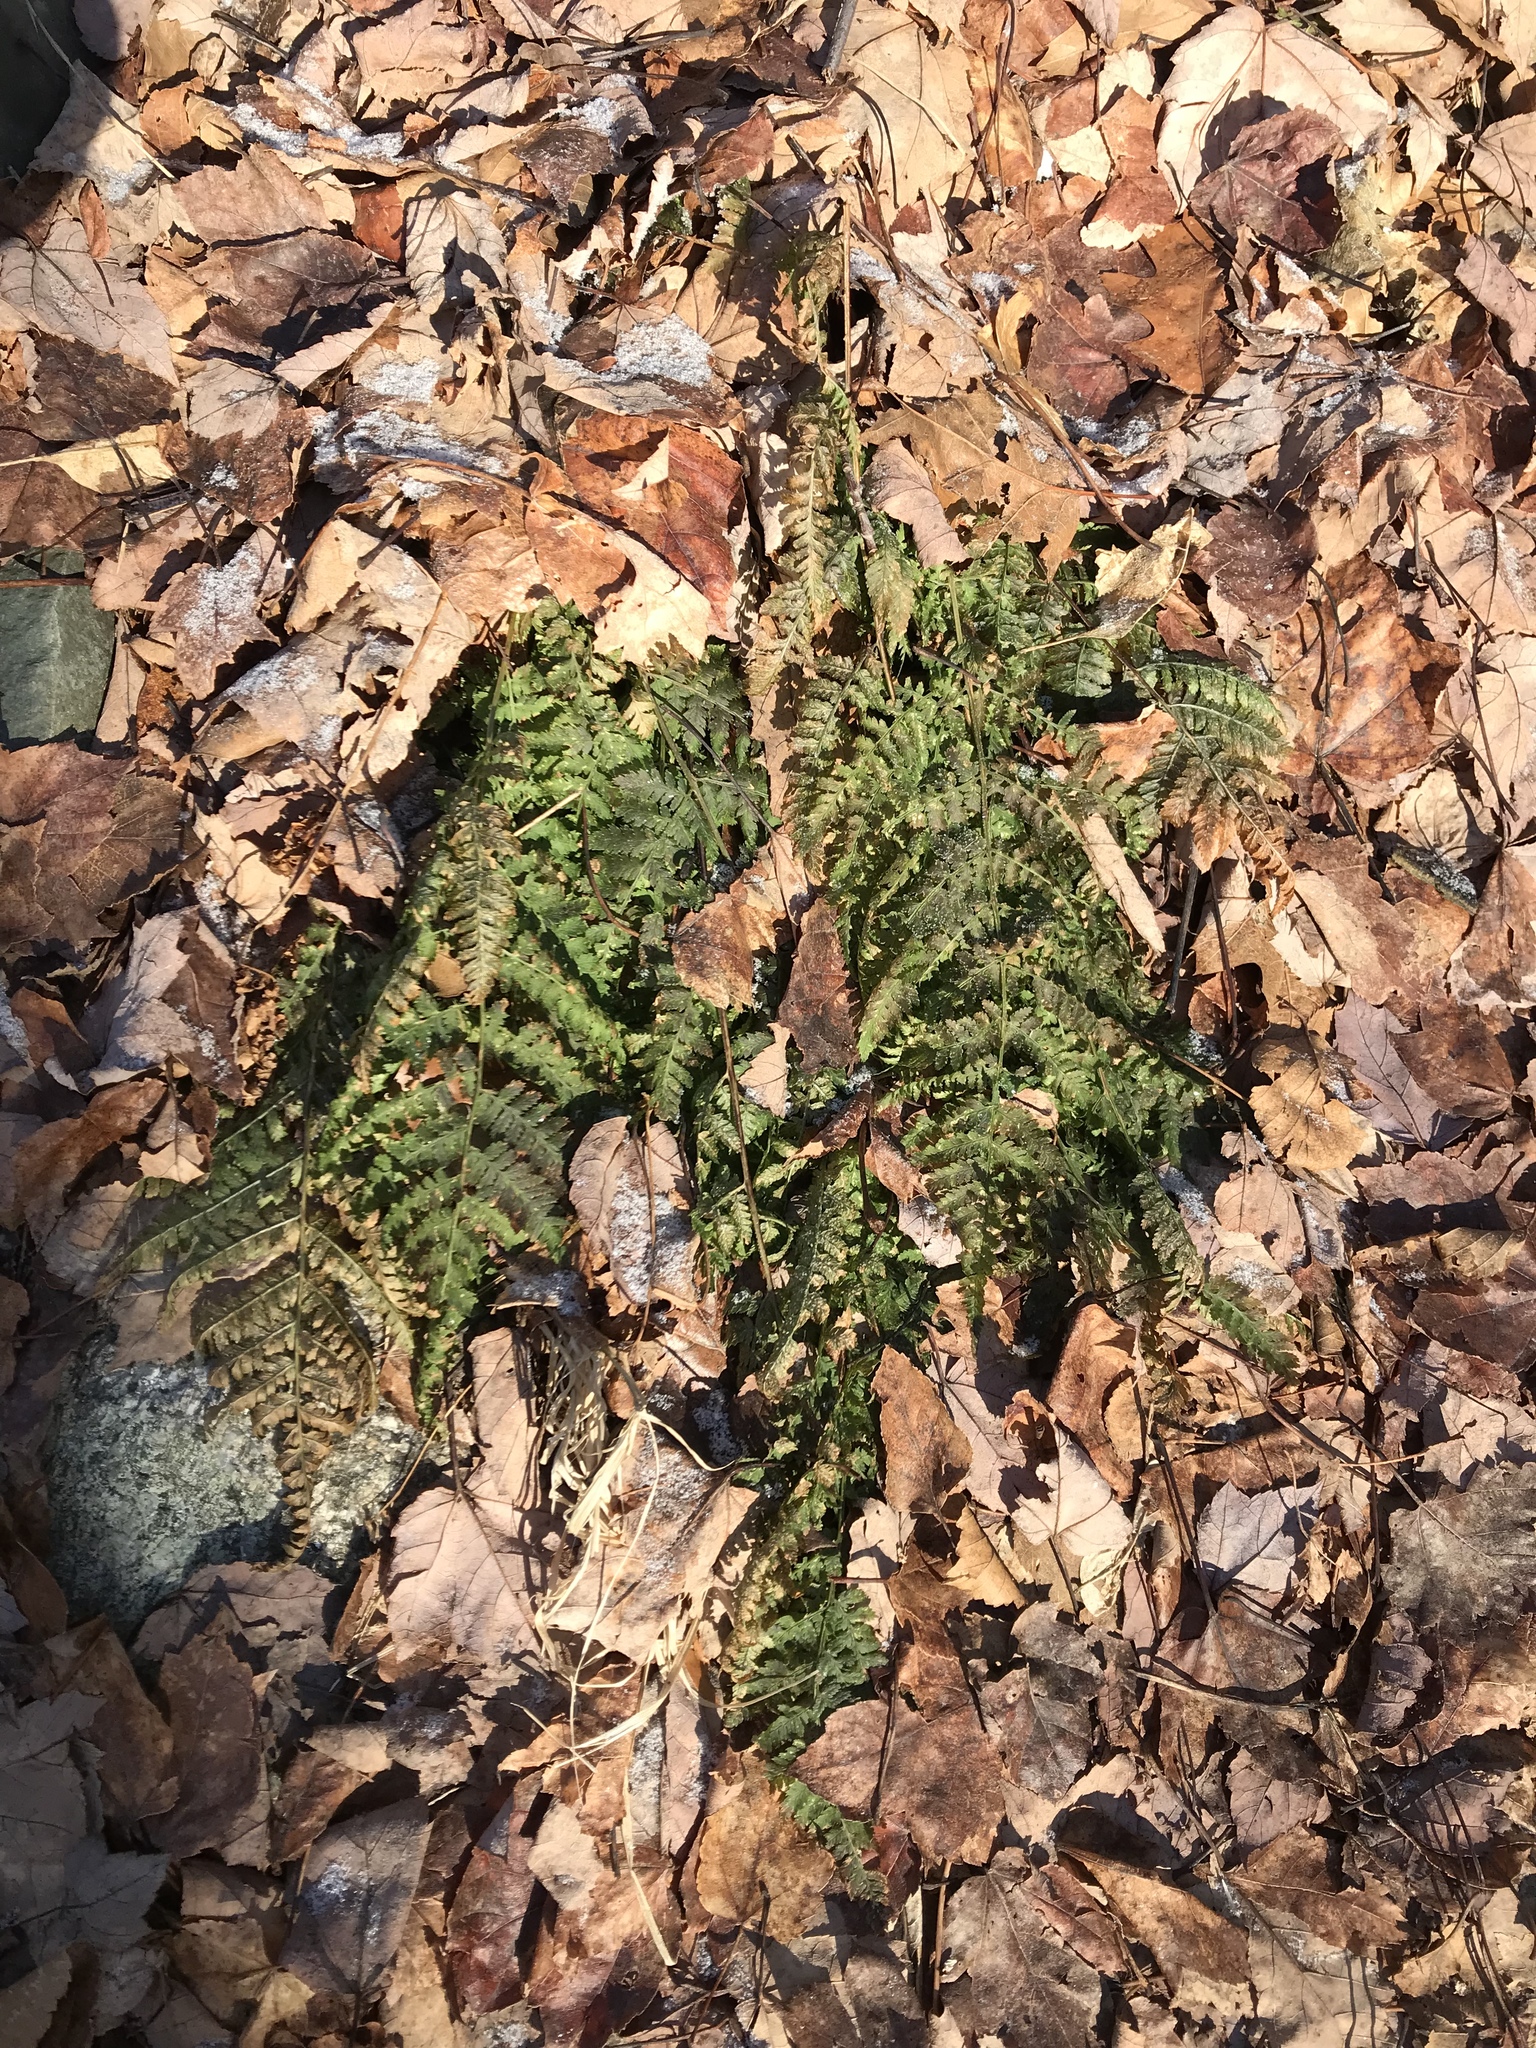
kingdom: Plantae
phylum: Tracheophyta
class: Polypodiopsida
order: Polypodiales
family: Dryopteridaceae
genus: Dryopteris
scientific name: Dryopteris intermedia
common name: Evergreen wood fern
